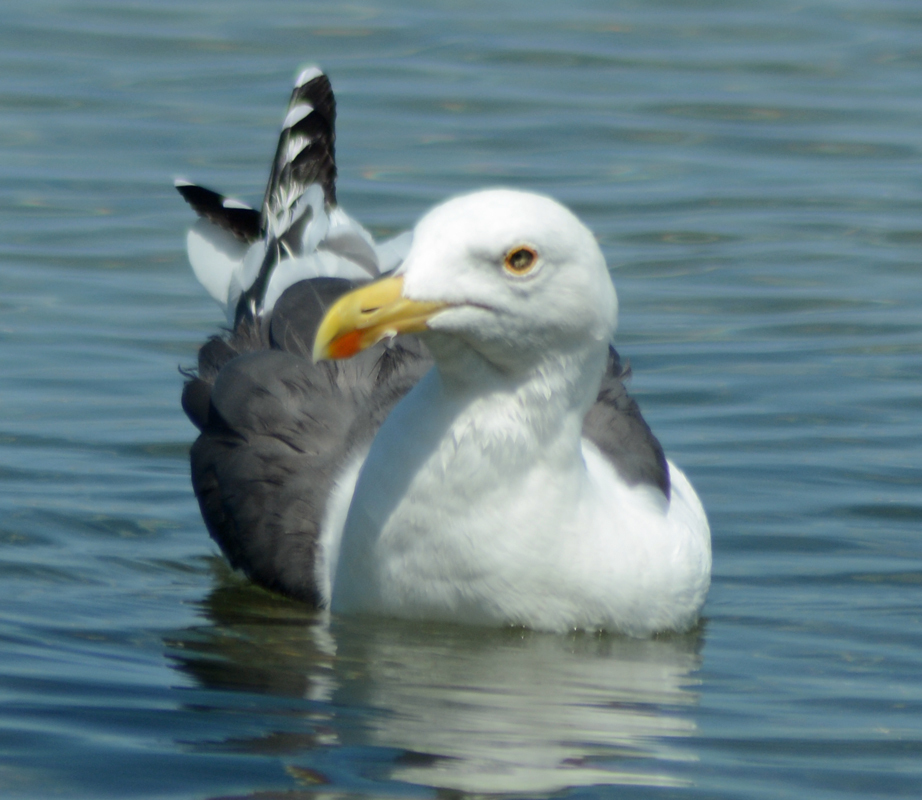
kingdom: Animalia
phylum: Chordata
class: Aves
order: Charadriiformes
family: Laridae
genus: Larus
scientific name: Larus livens
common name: Yellow-footed gull
